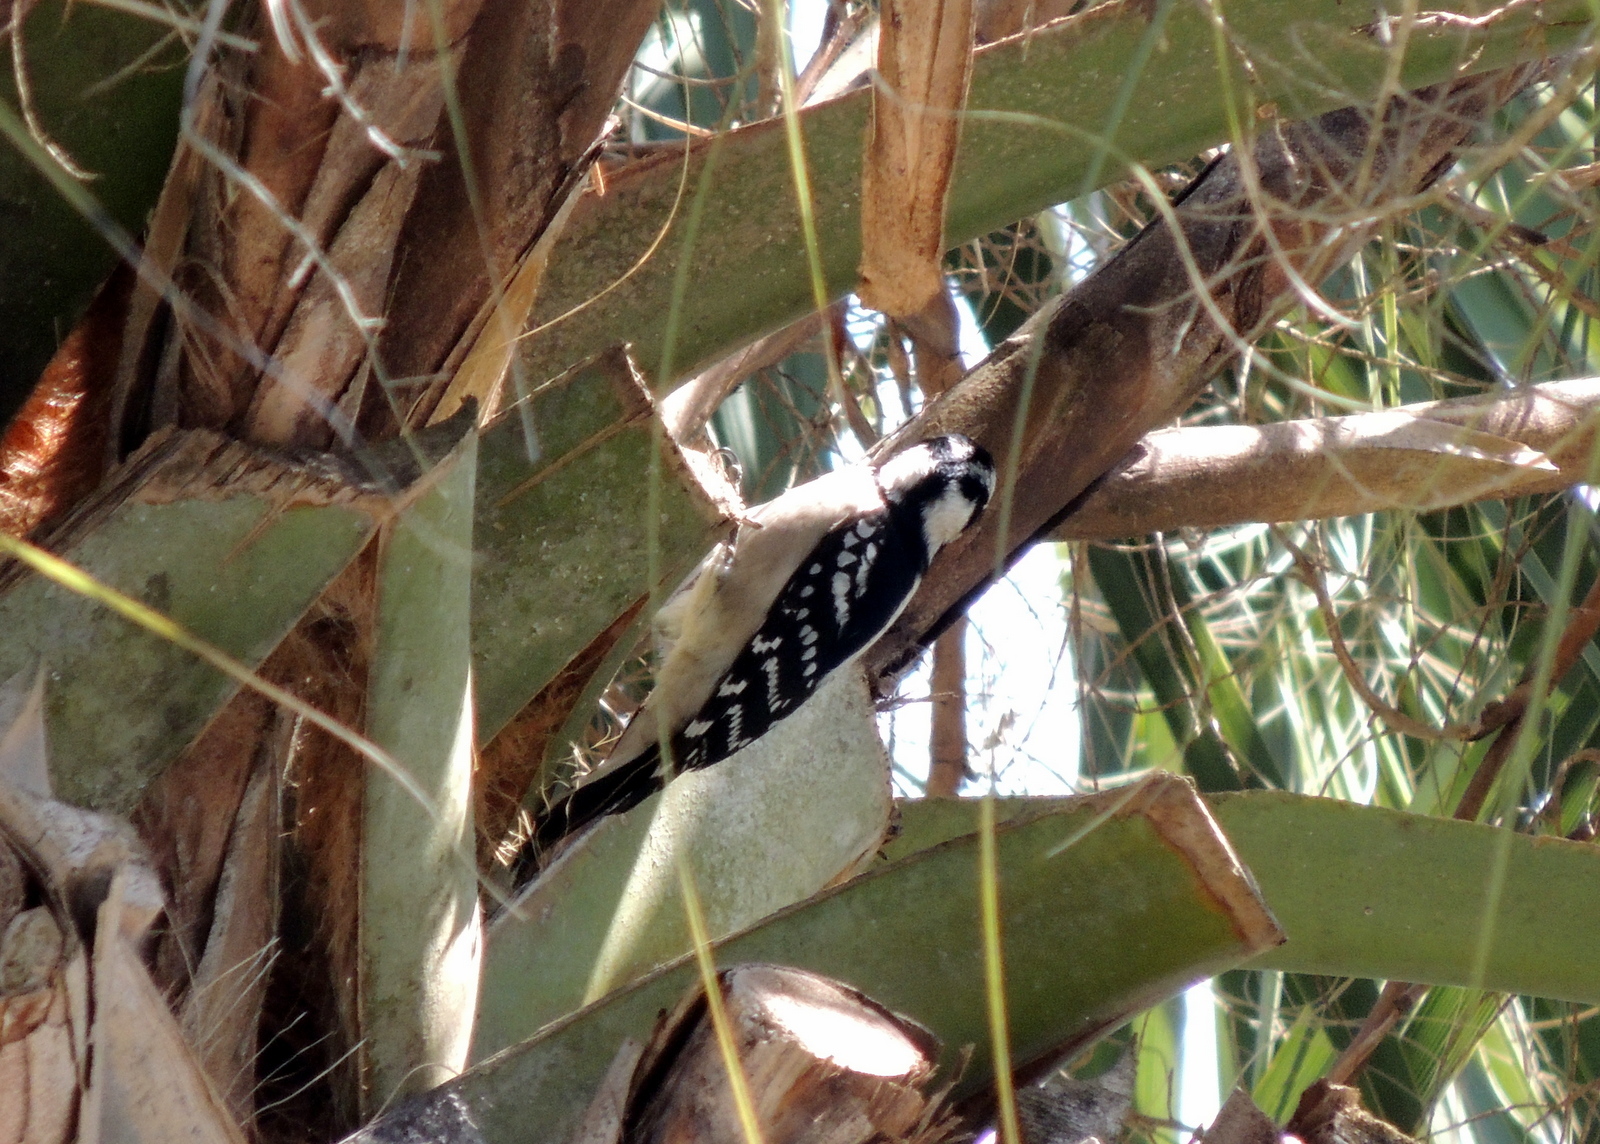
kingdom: Animalia
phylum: Chordata
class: Aves
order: Piciformes
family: Picidae
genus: Dryobates
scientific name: Dryobates pubescens
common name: Downy woodpecker
